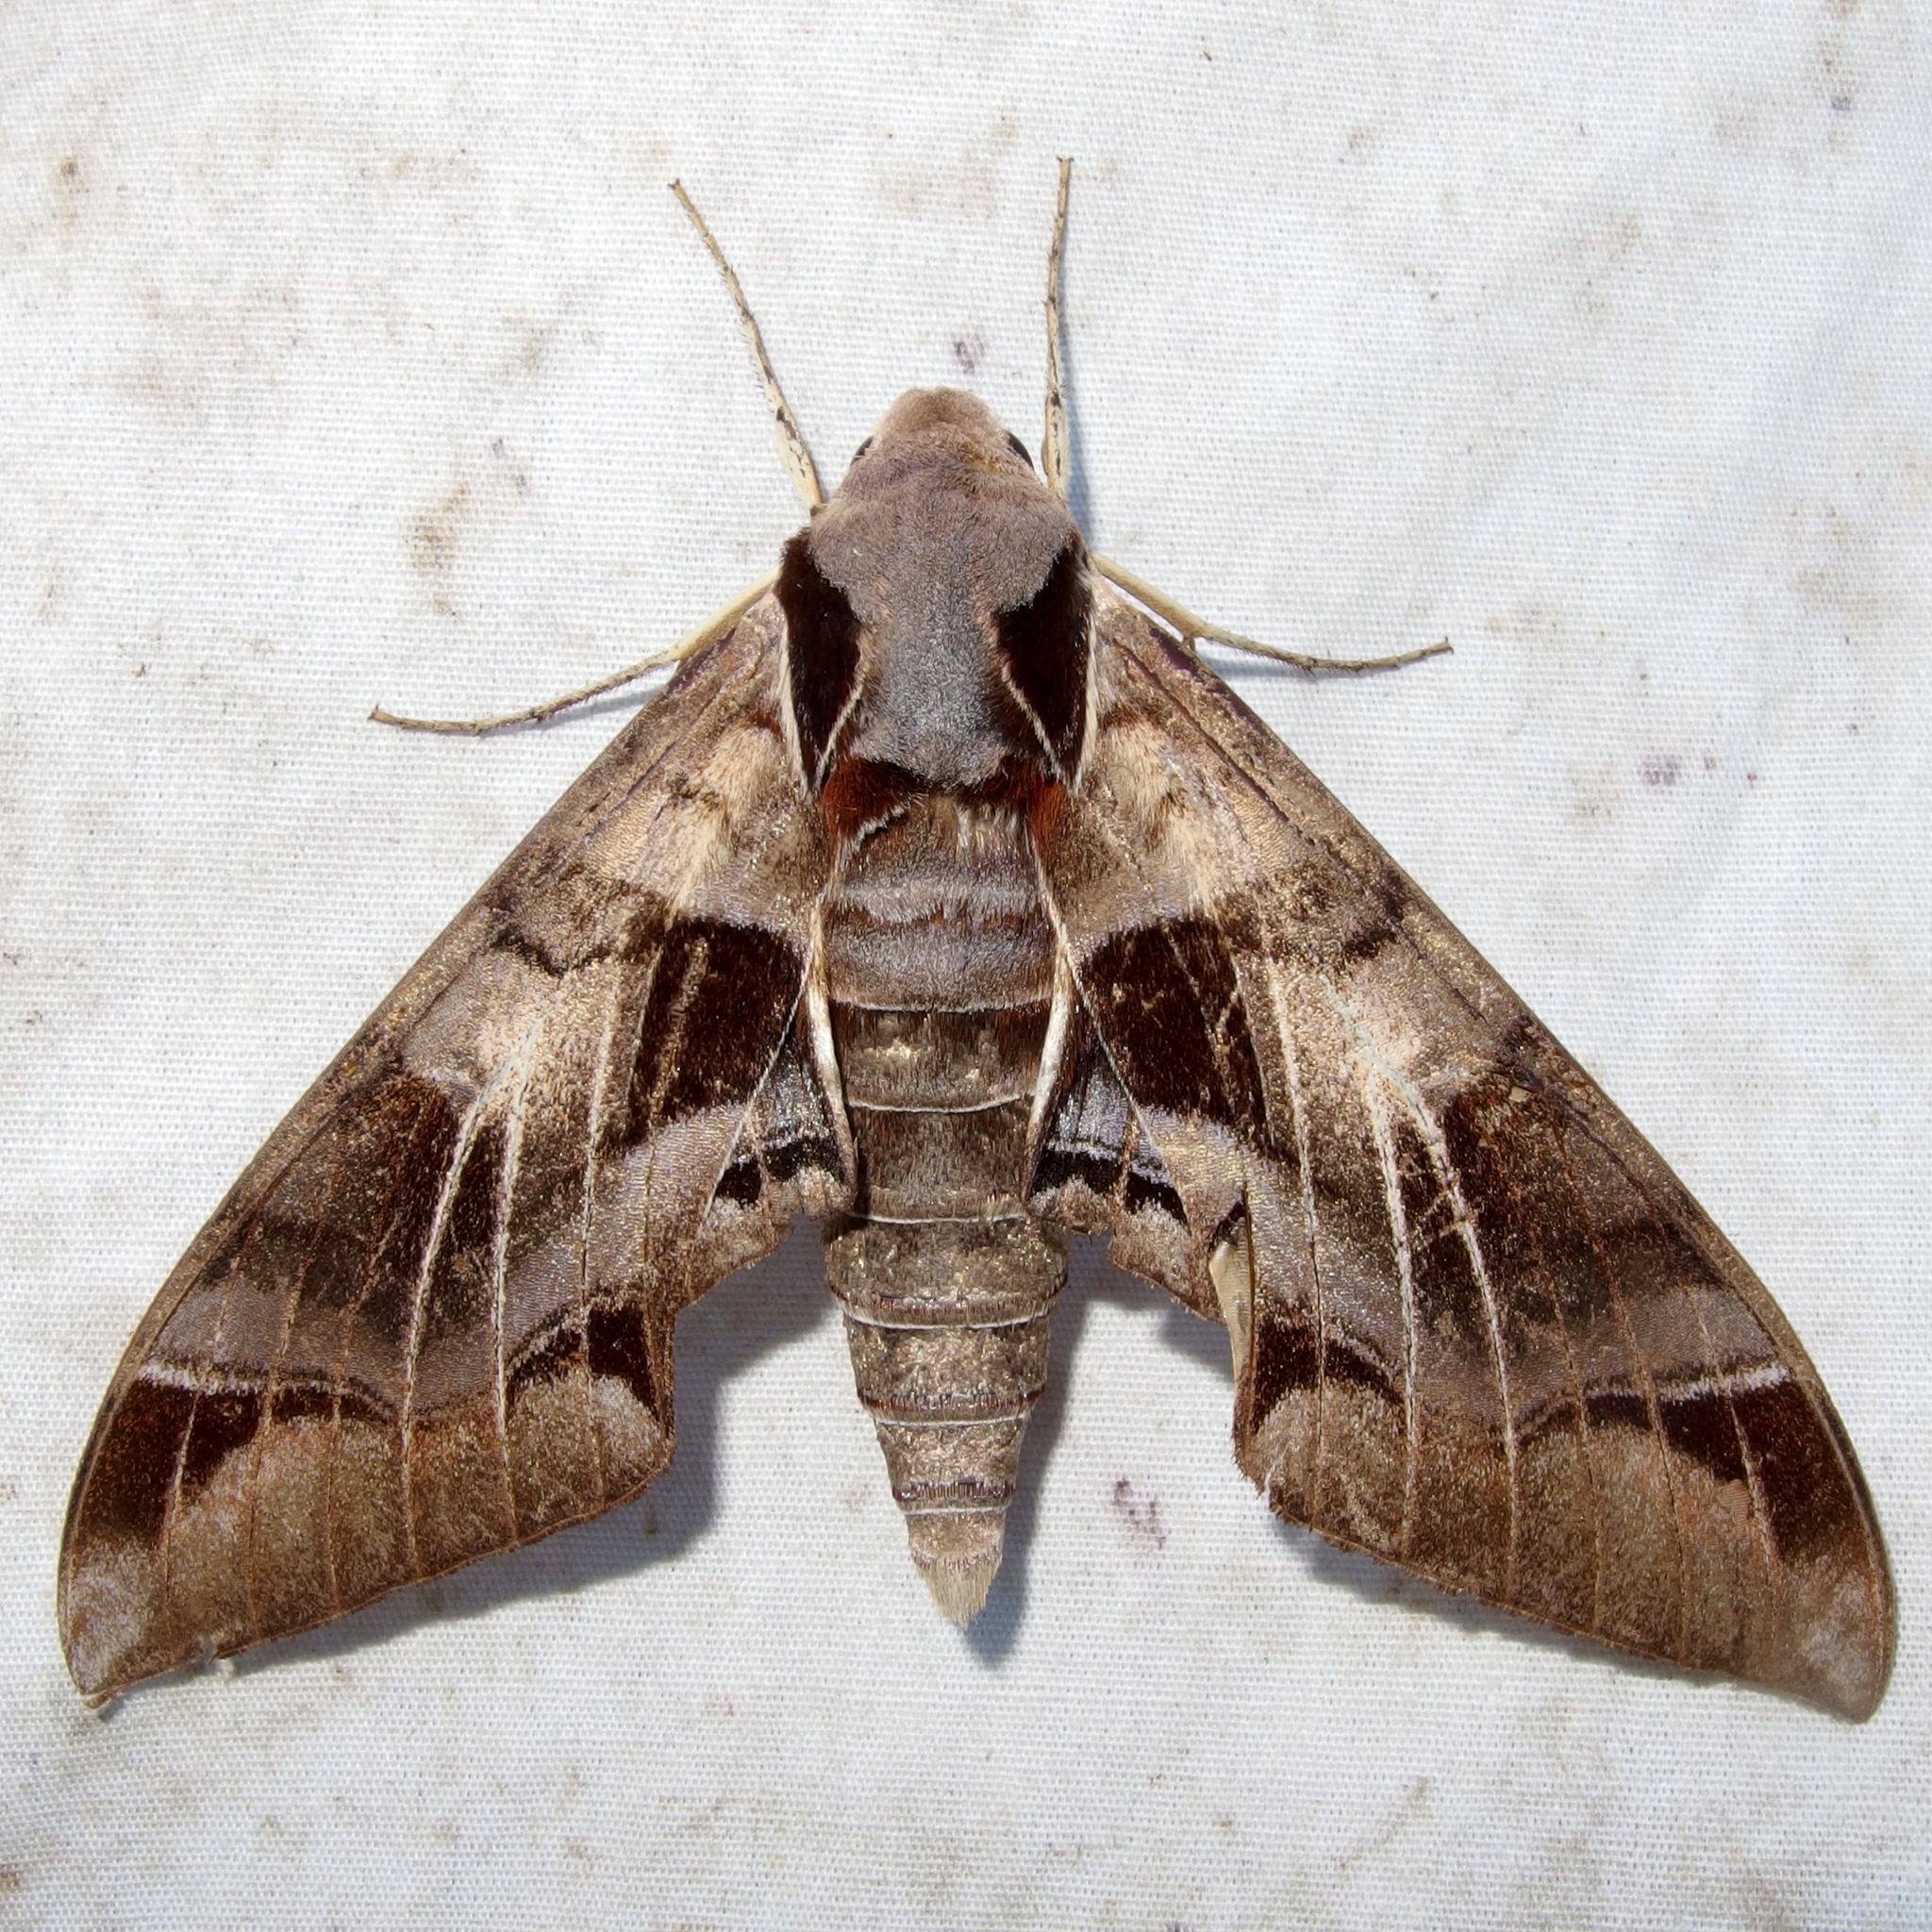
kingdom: Animalia
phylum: Arthropoda
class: Insecta
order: Lepidoptera
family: Sphingidae
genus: Eumorpha
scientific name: Eumorpha typhon
